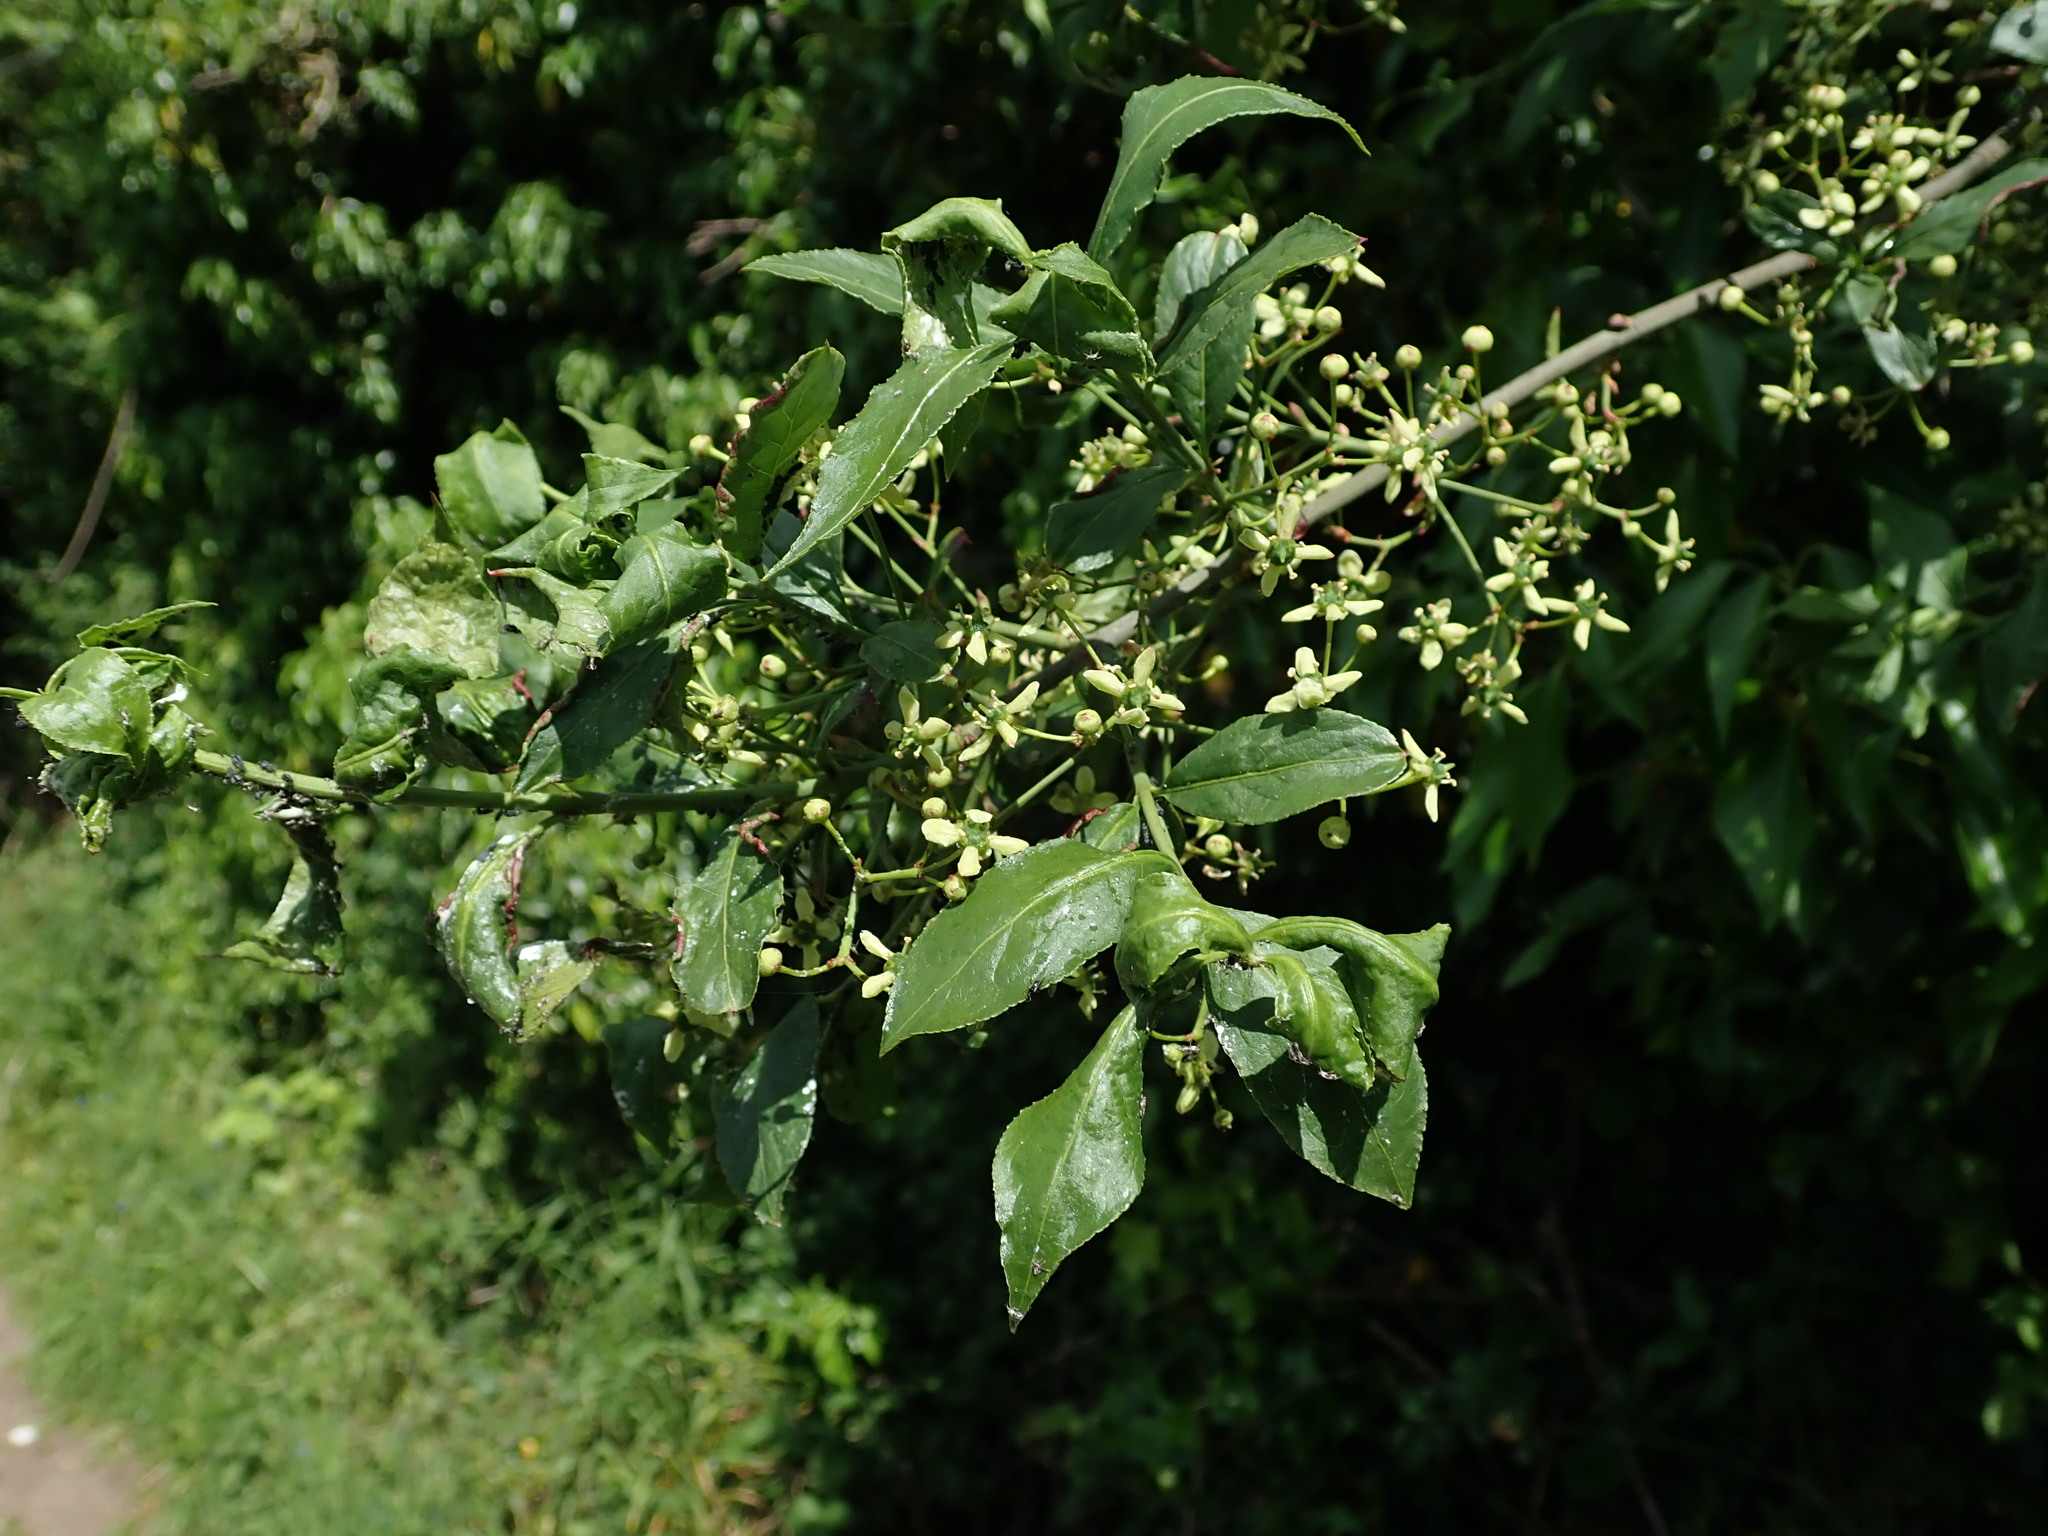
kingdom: Plantae
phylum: Tracheophyta
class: Magnoliopsida
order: Celastrales
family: Celastraceae
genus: Euonymus
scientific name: Euonymus europaeus
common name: Spindle
